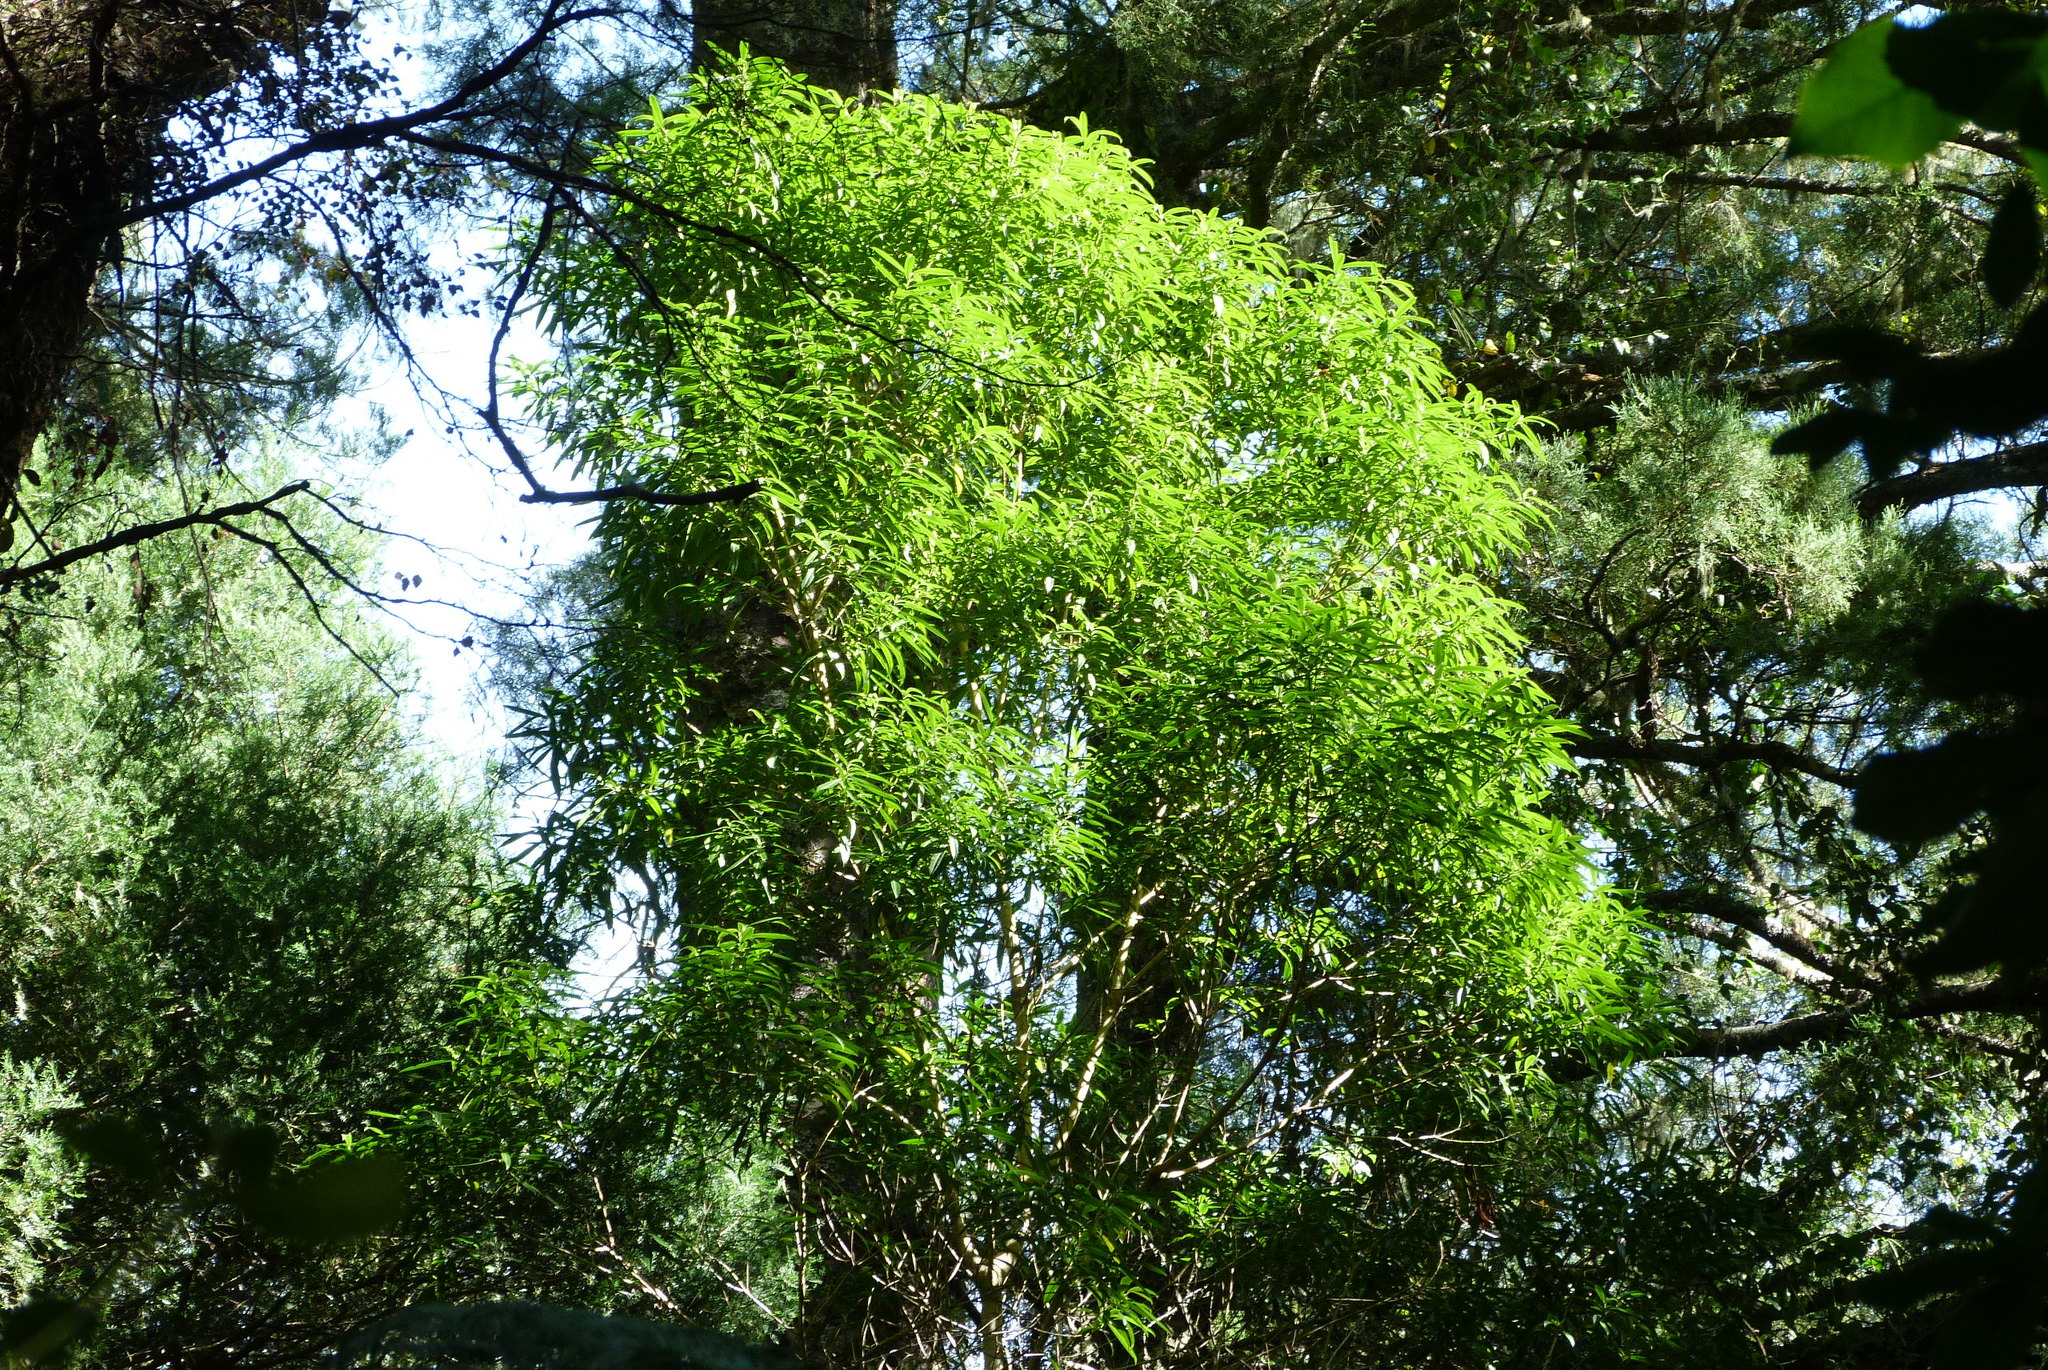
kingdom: Plantae
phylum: Tracheophyta
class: Magnoliopsida
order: Malpighiales
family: Violaceae
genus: Melicytus
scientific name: Melicytus lanceolatus
